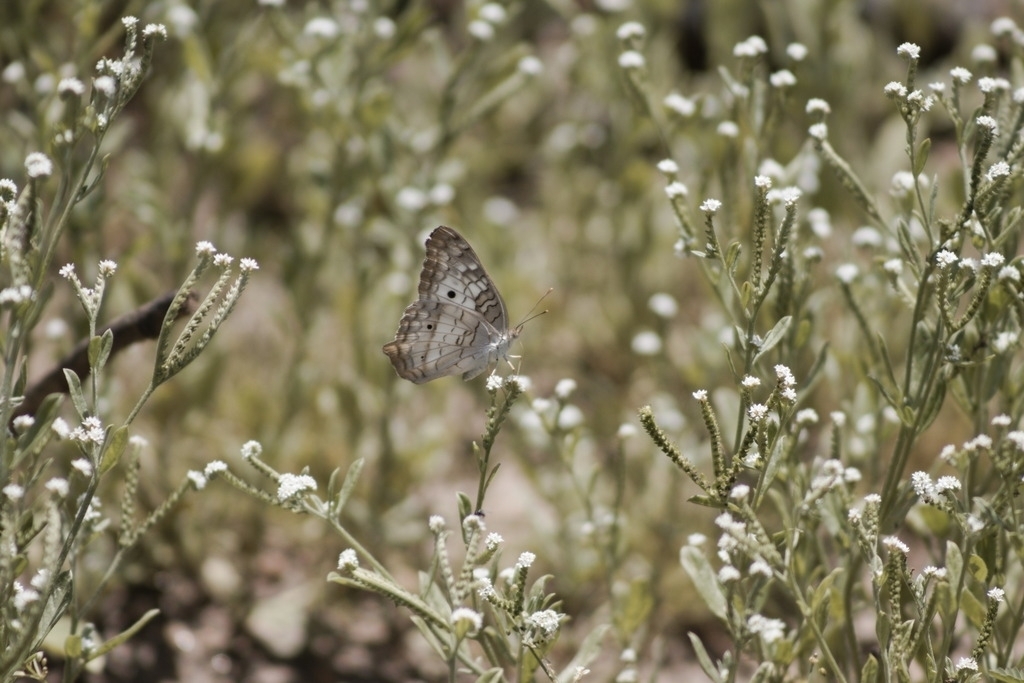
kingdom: Animalia
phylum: Arthropoda
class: Insecta
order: Lepidoptera
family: Nymphalidae
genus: Anartia
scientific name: Anartia jatrophae
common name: White peacock
